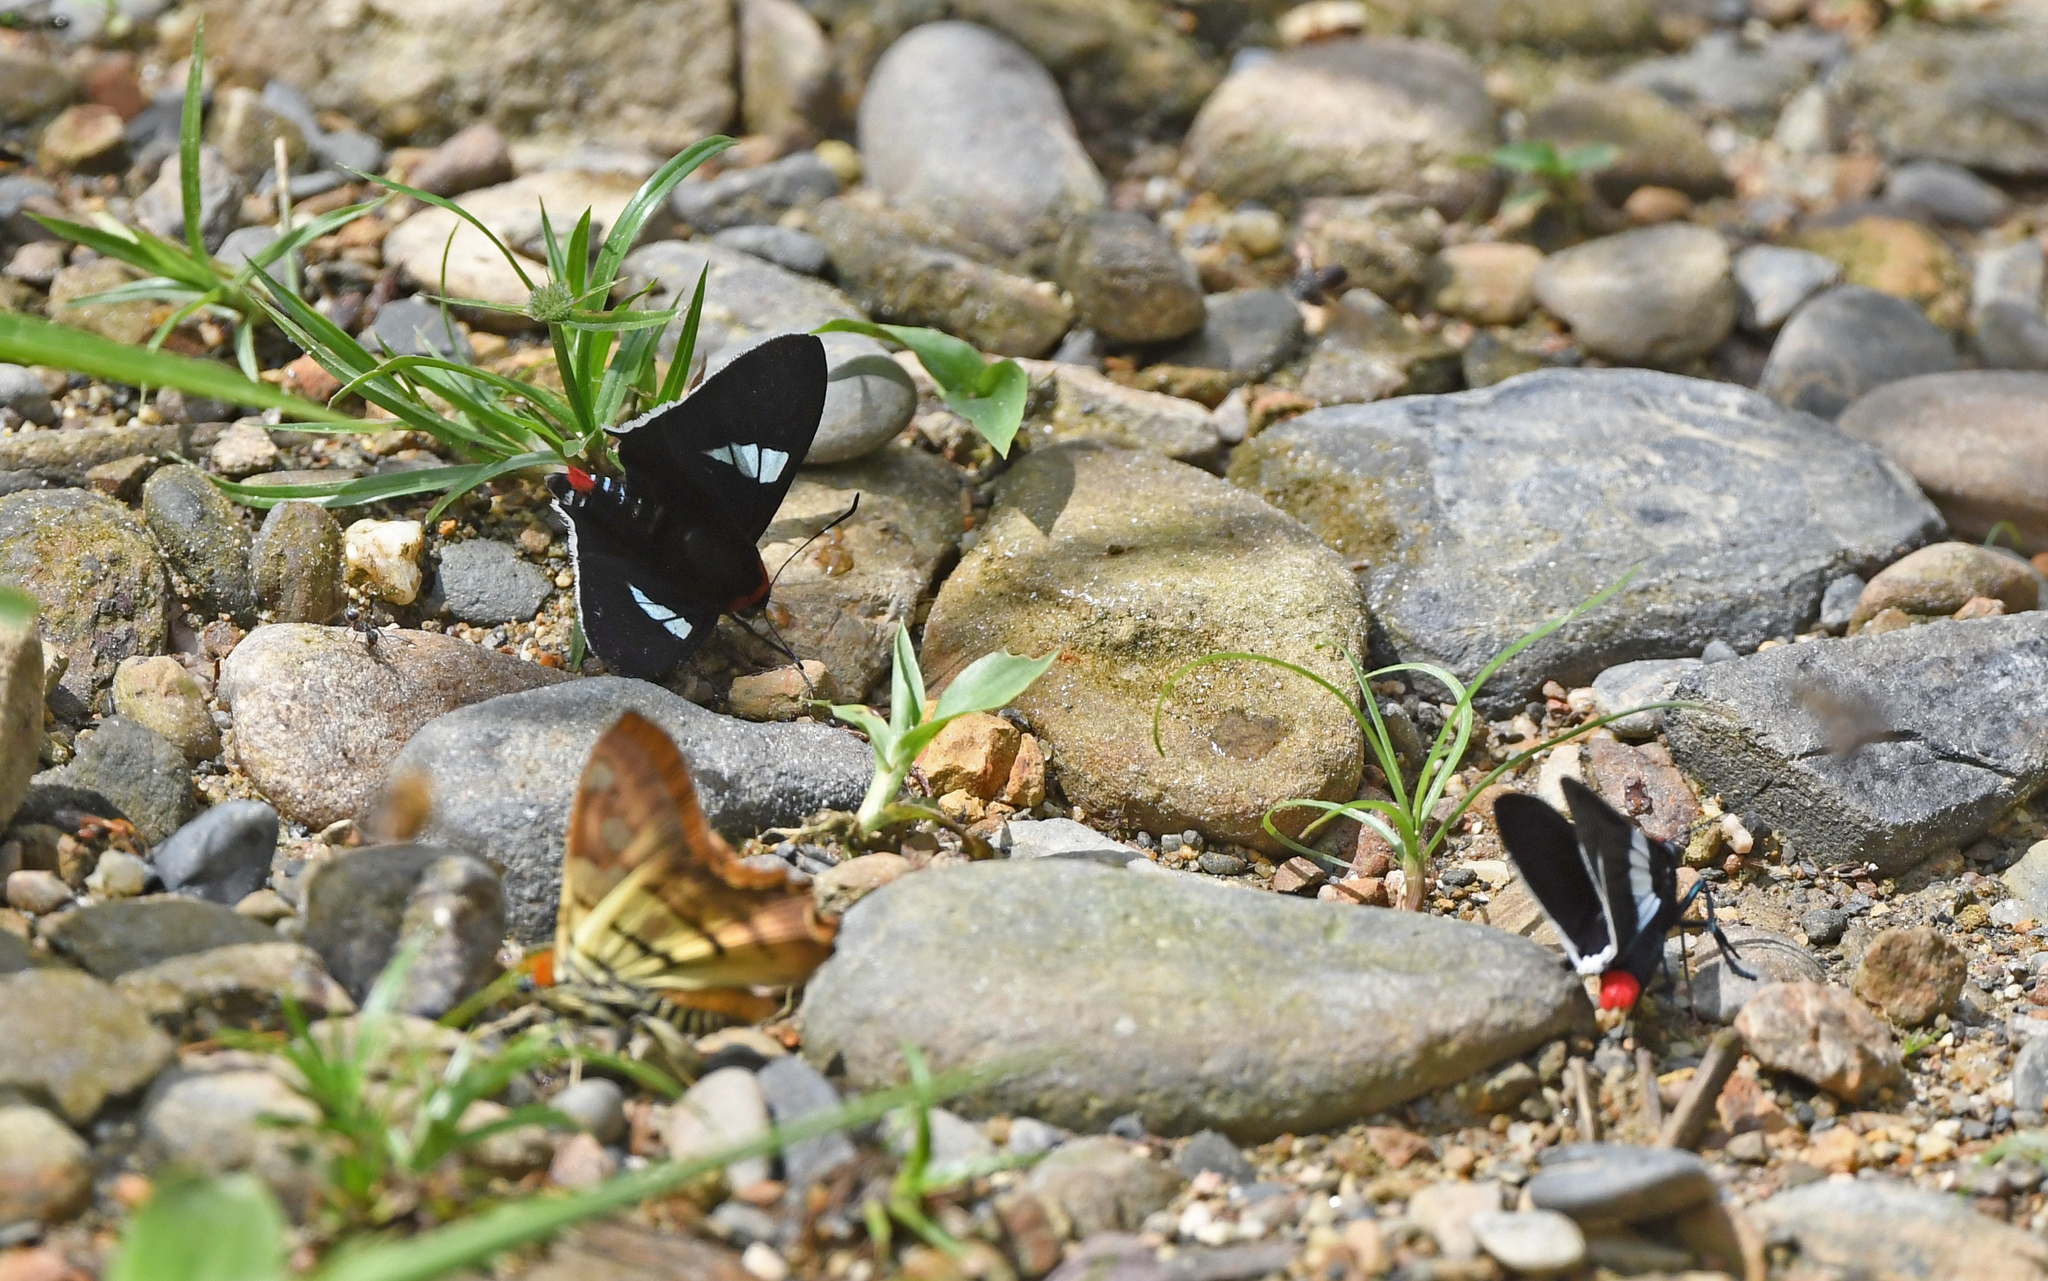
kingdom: Animalia
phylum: Arthropoda
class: Insecta
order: Lepidoptera
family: Hesperiidae
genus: Aspitha
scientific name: Aspitha agenoria
